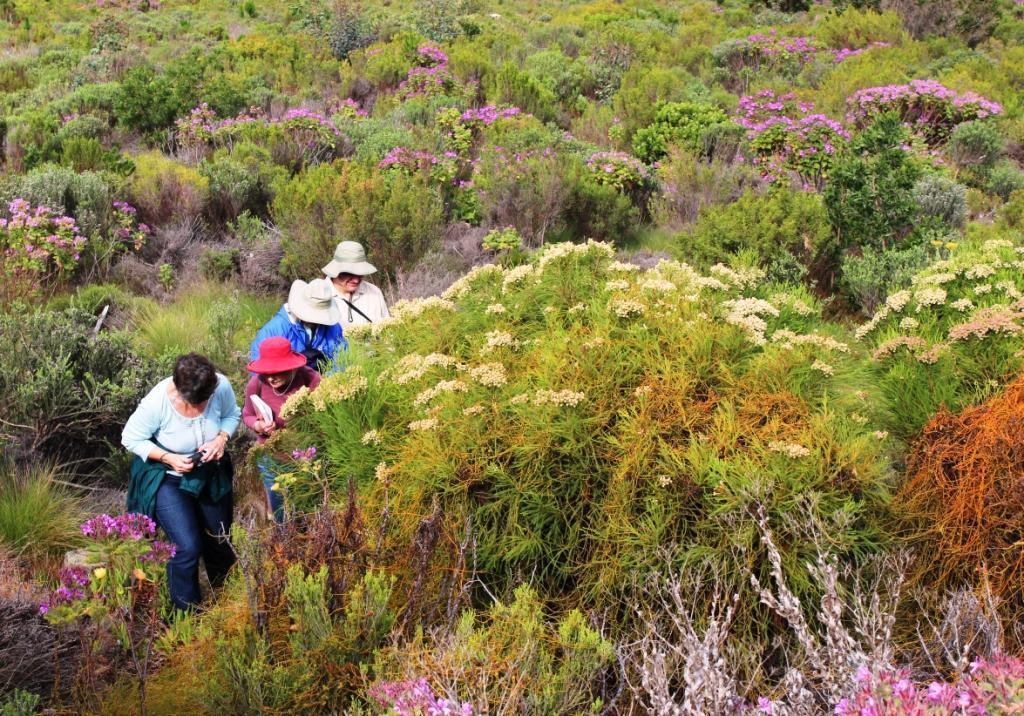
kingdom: Plantae
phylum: Tracheophyta
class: Magnoliopsida
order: Bruniales
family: Bruniaceae
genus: Berzelia
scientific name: Berzelia lanuginosa
